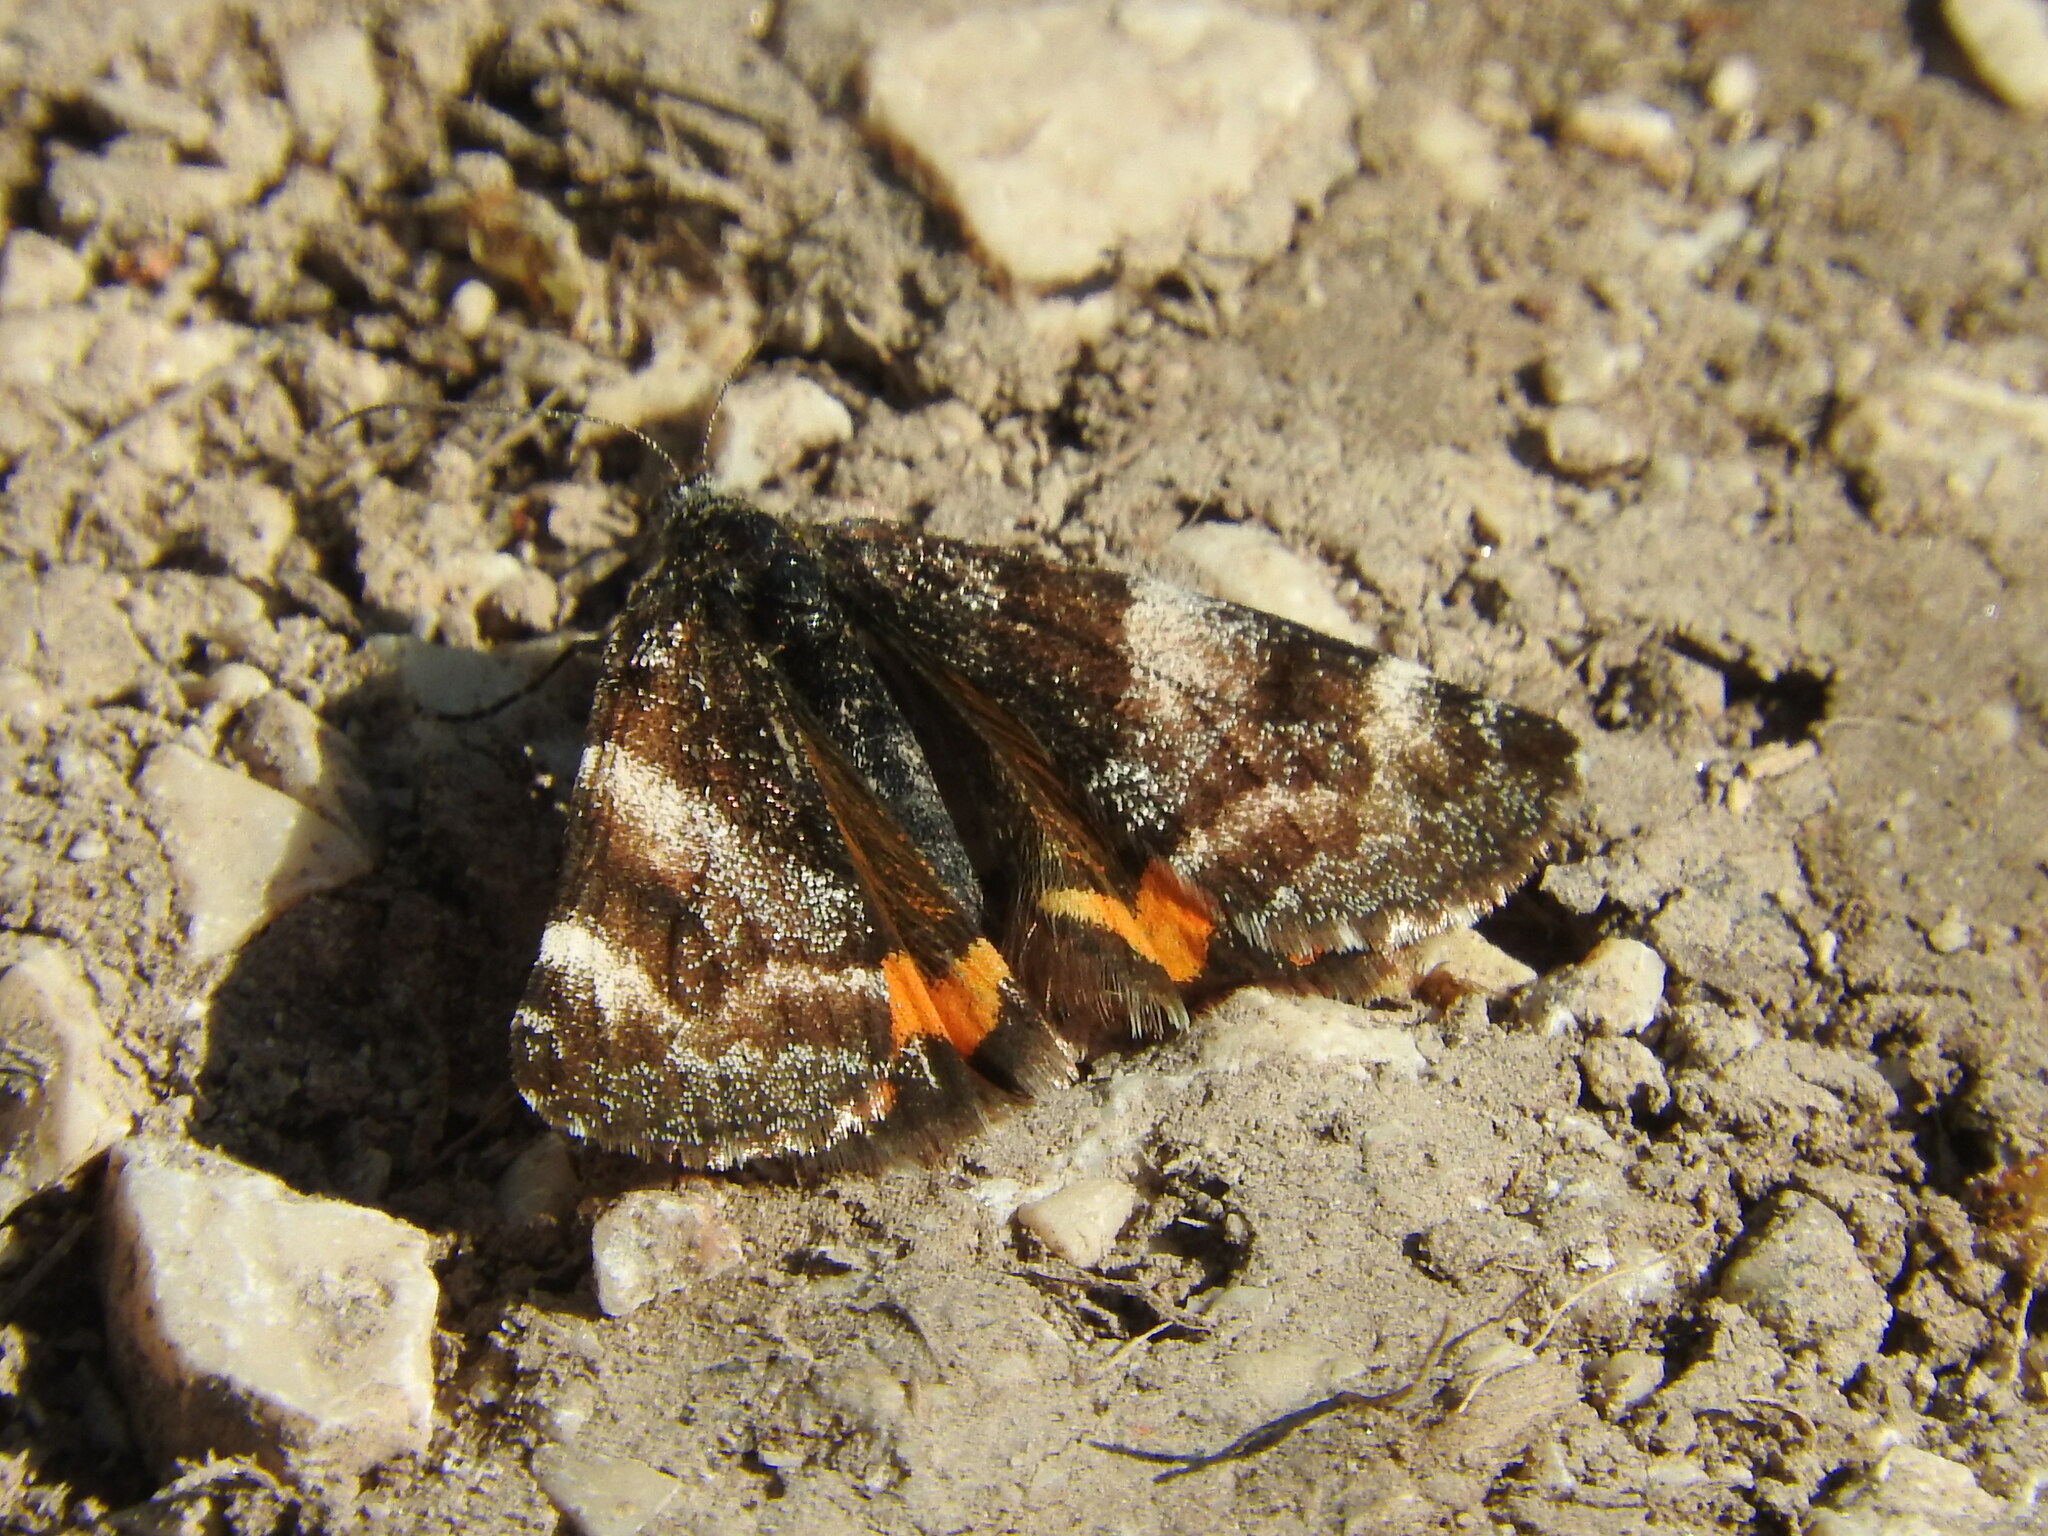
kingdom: Animalia
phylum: Arthropoda
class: Insecta
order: Lepidoptera
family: Geometridae
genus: Archiearis
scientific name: Archiearis parthenias
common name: Orange underwing
